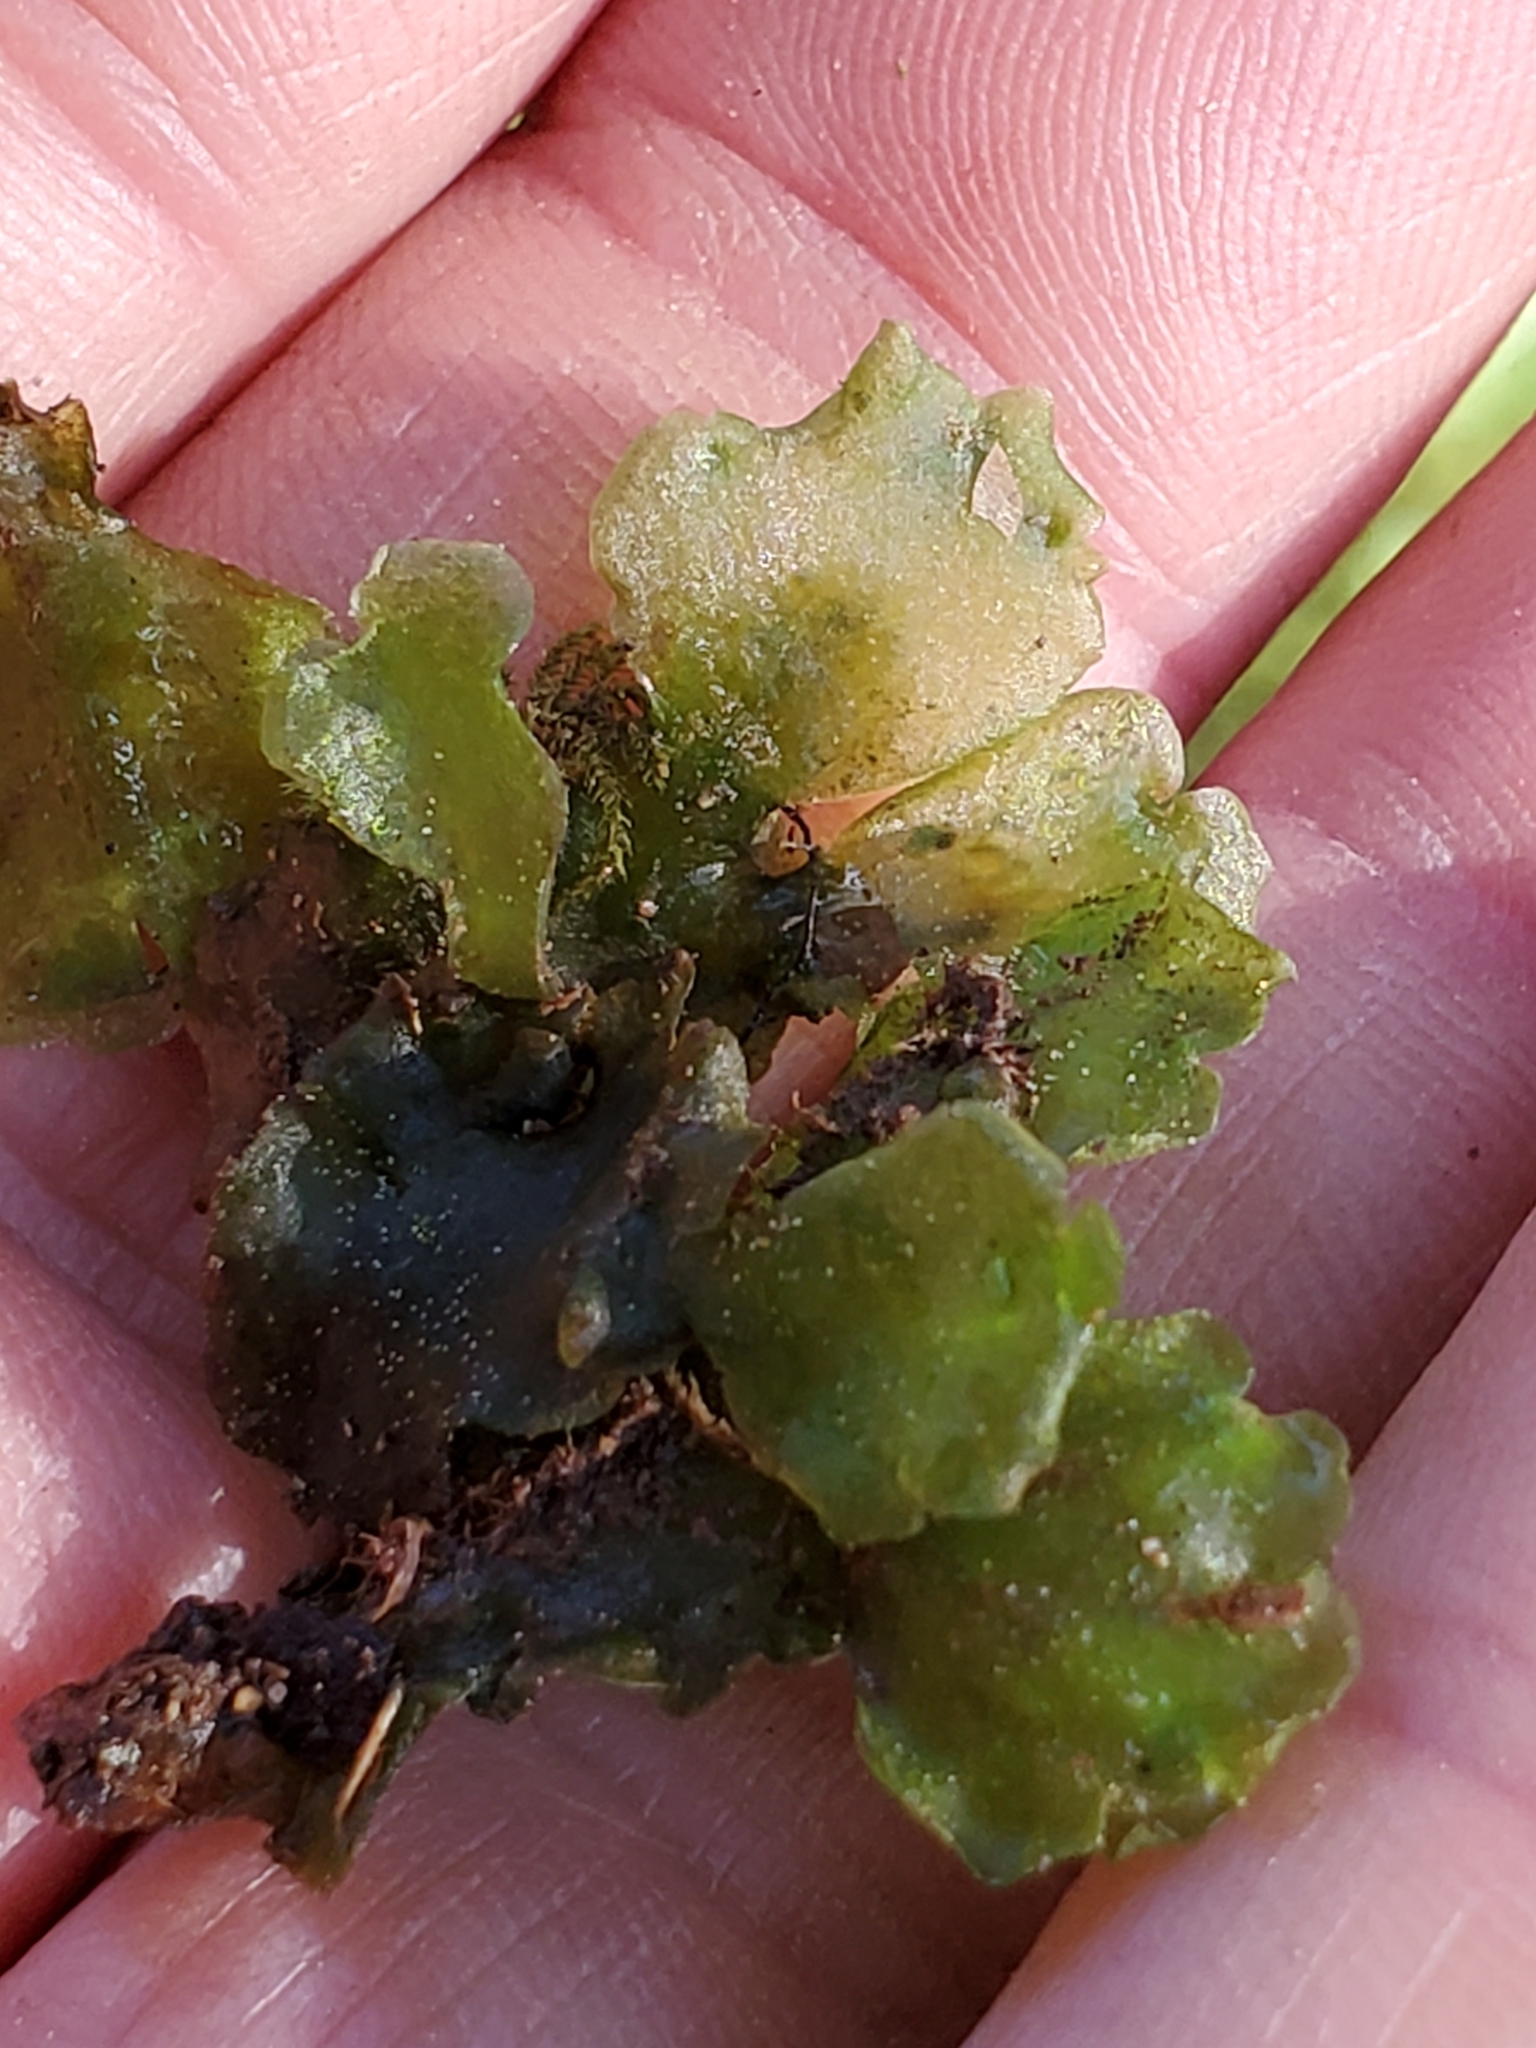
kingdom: Plantae
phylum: Marchantiophyta
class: Jungermanniopsida
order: Pelliales
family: Pelliaceae
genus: Pellia
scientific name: Pellia neesiana
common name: Nees  pellia
